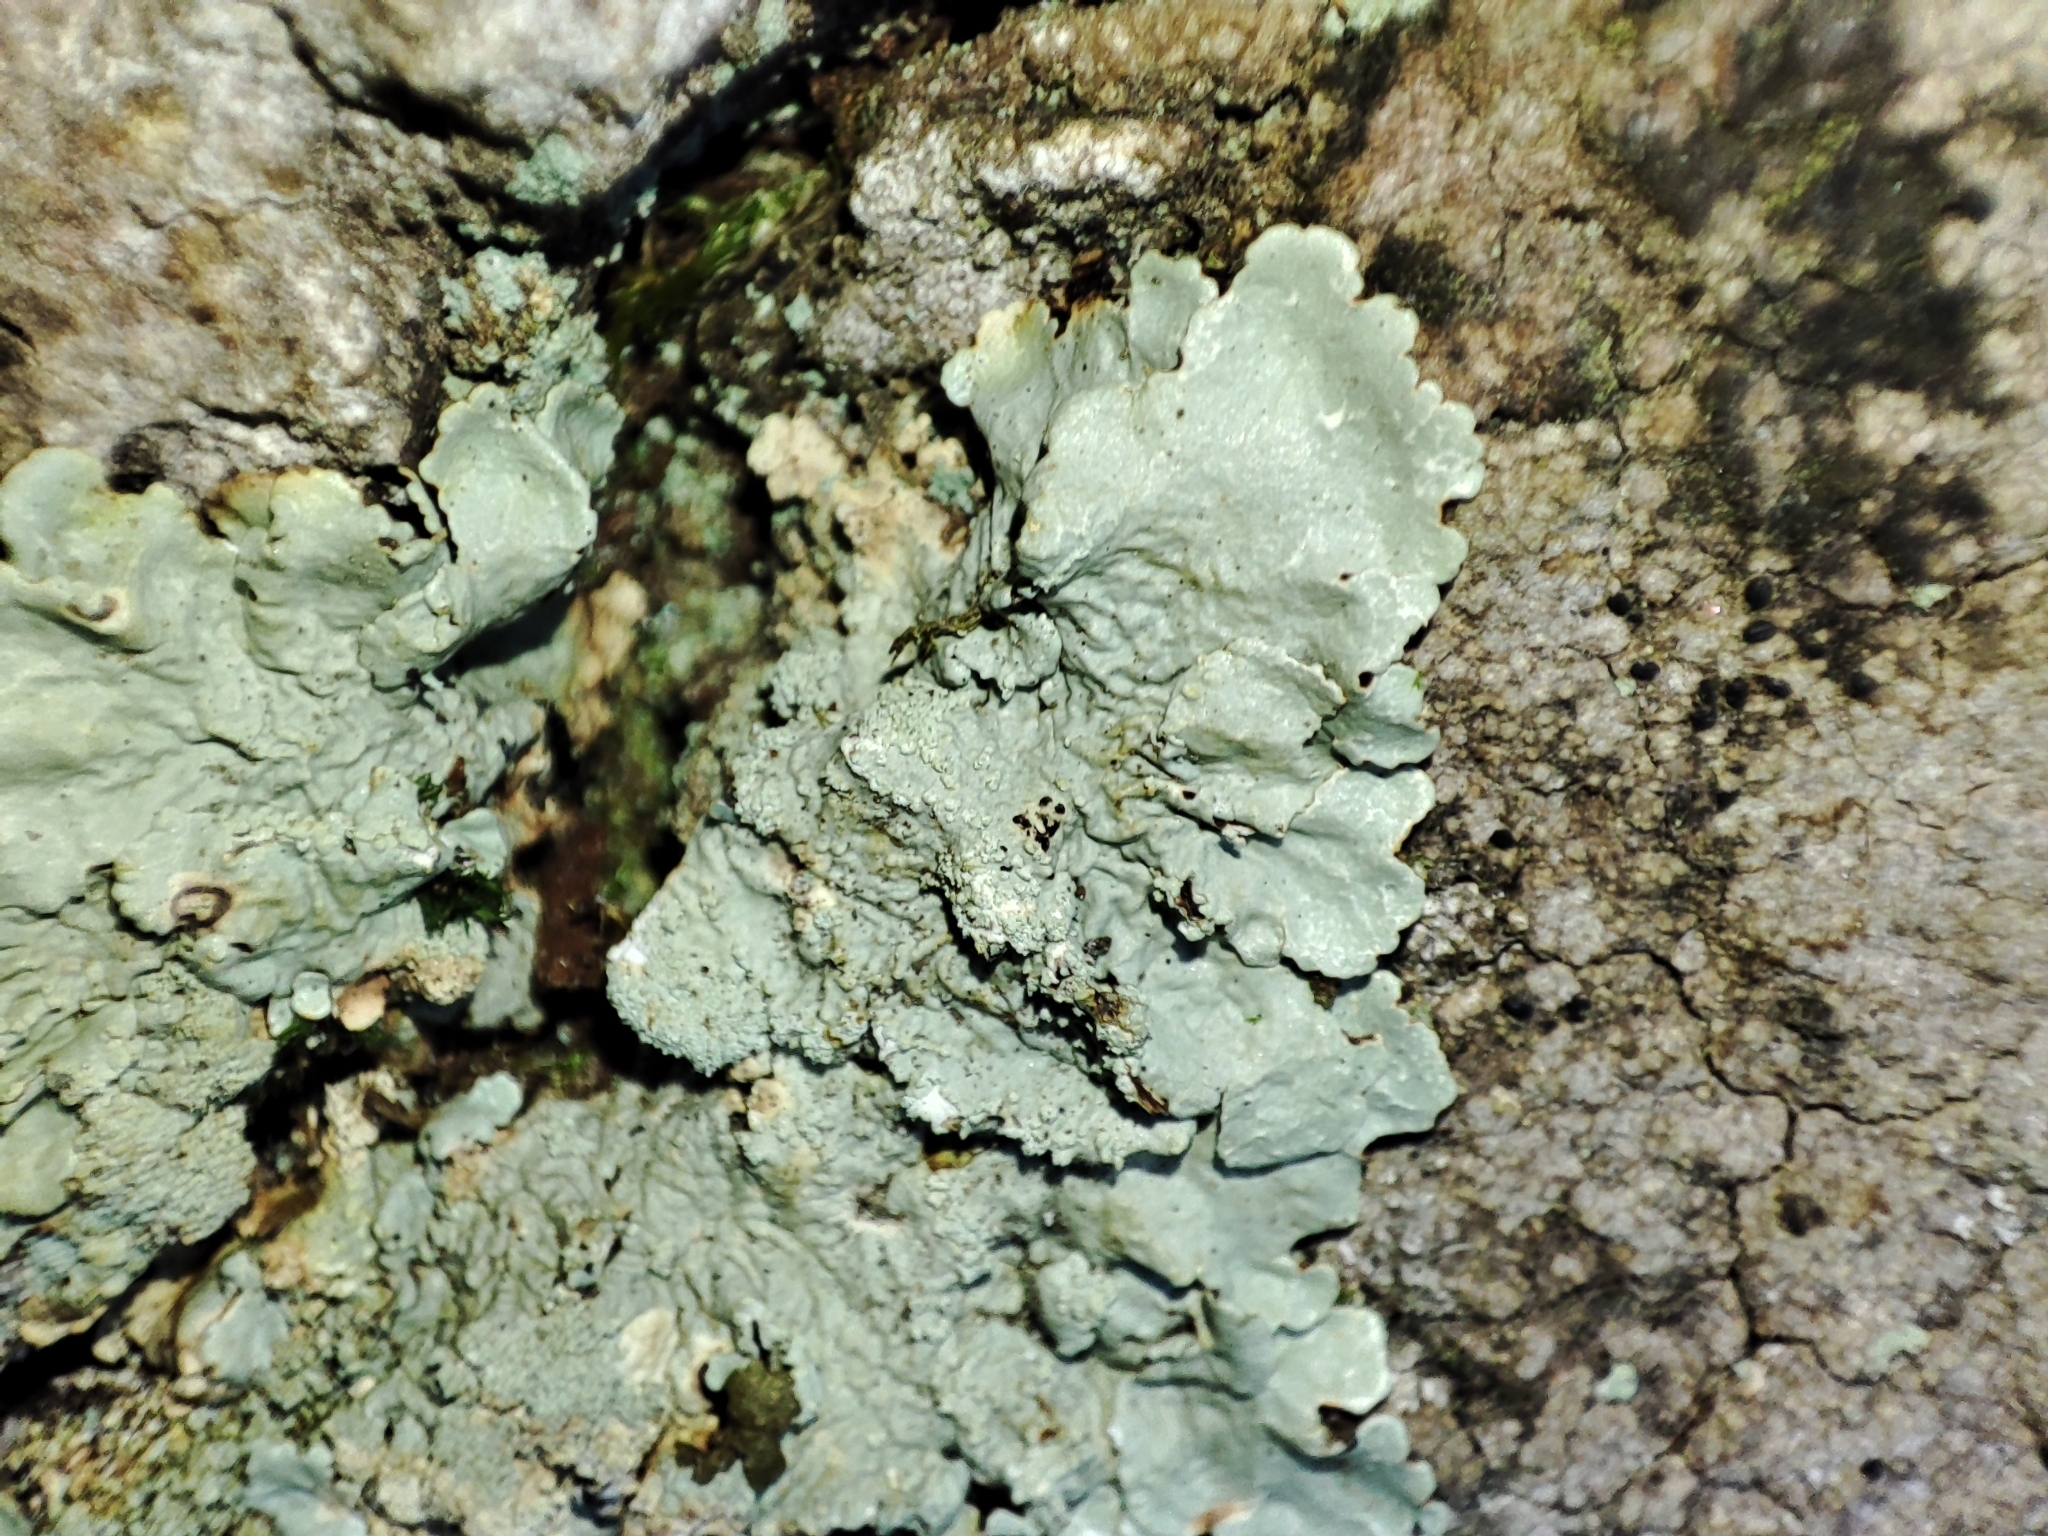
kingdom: Fungi
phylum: Ascomycota
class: Lecanoromycetes
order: Lecanorales
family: Parmeliaceae
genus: Flavoparmelia
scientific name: Flavoparmelia caperata
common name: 40-mile per hour lichen
